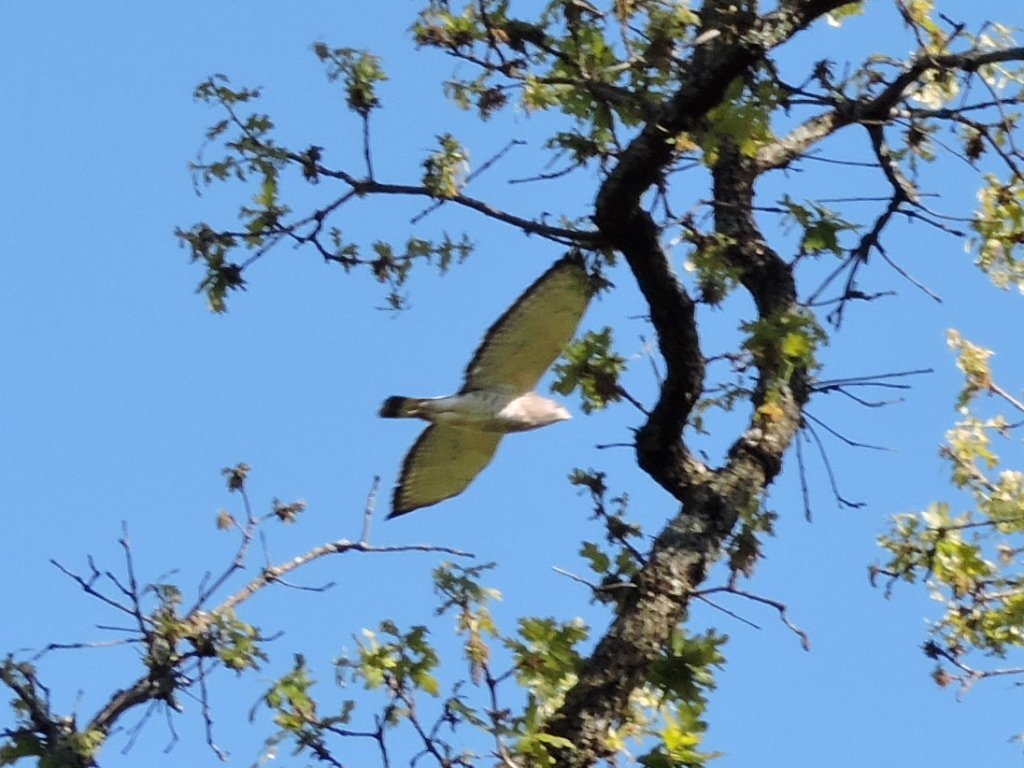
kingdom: Animalia
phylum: Chordata
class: Aves
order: Accipitriformes
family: Accipitridae
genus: Buteo
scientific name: Buteo platypterus
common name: Broad-winged hawk
